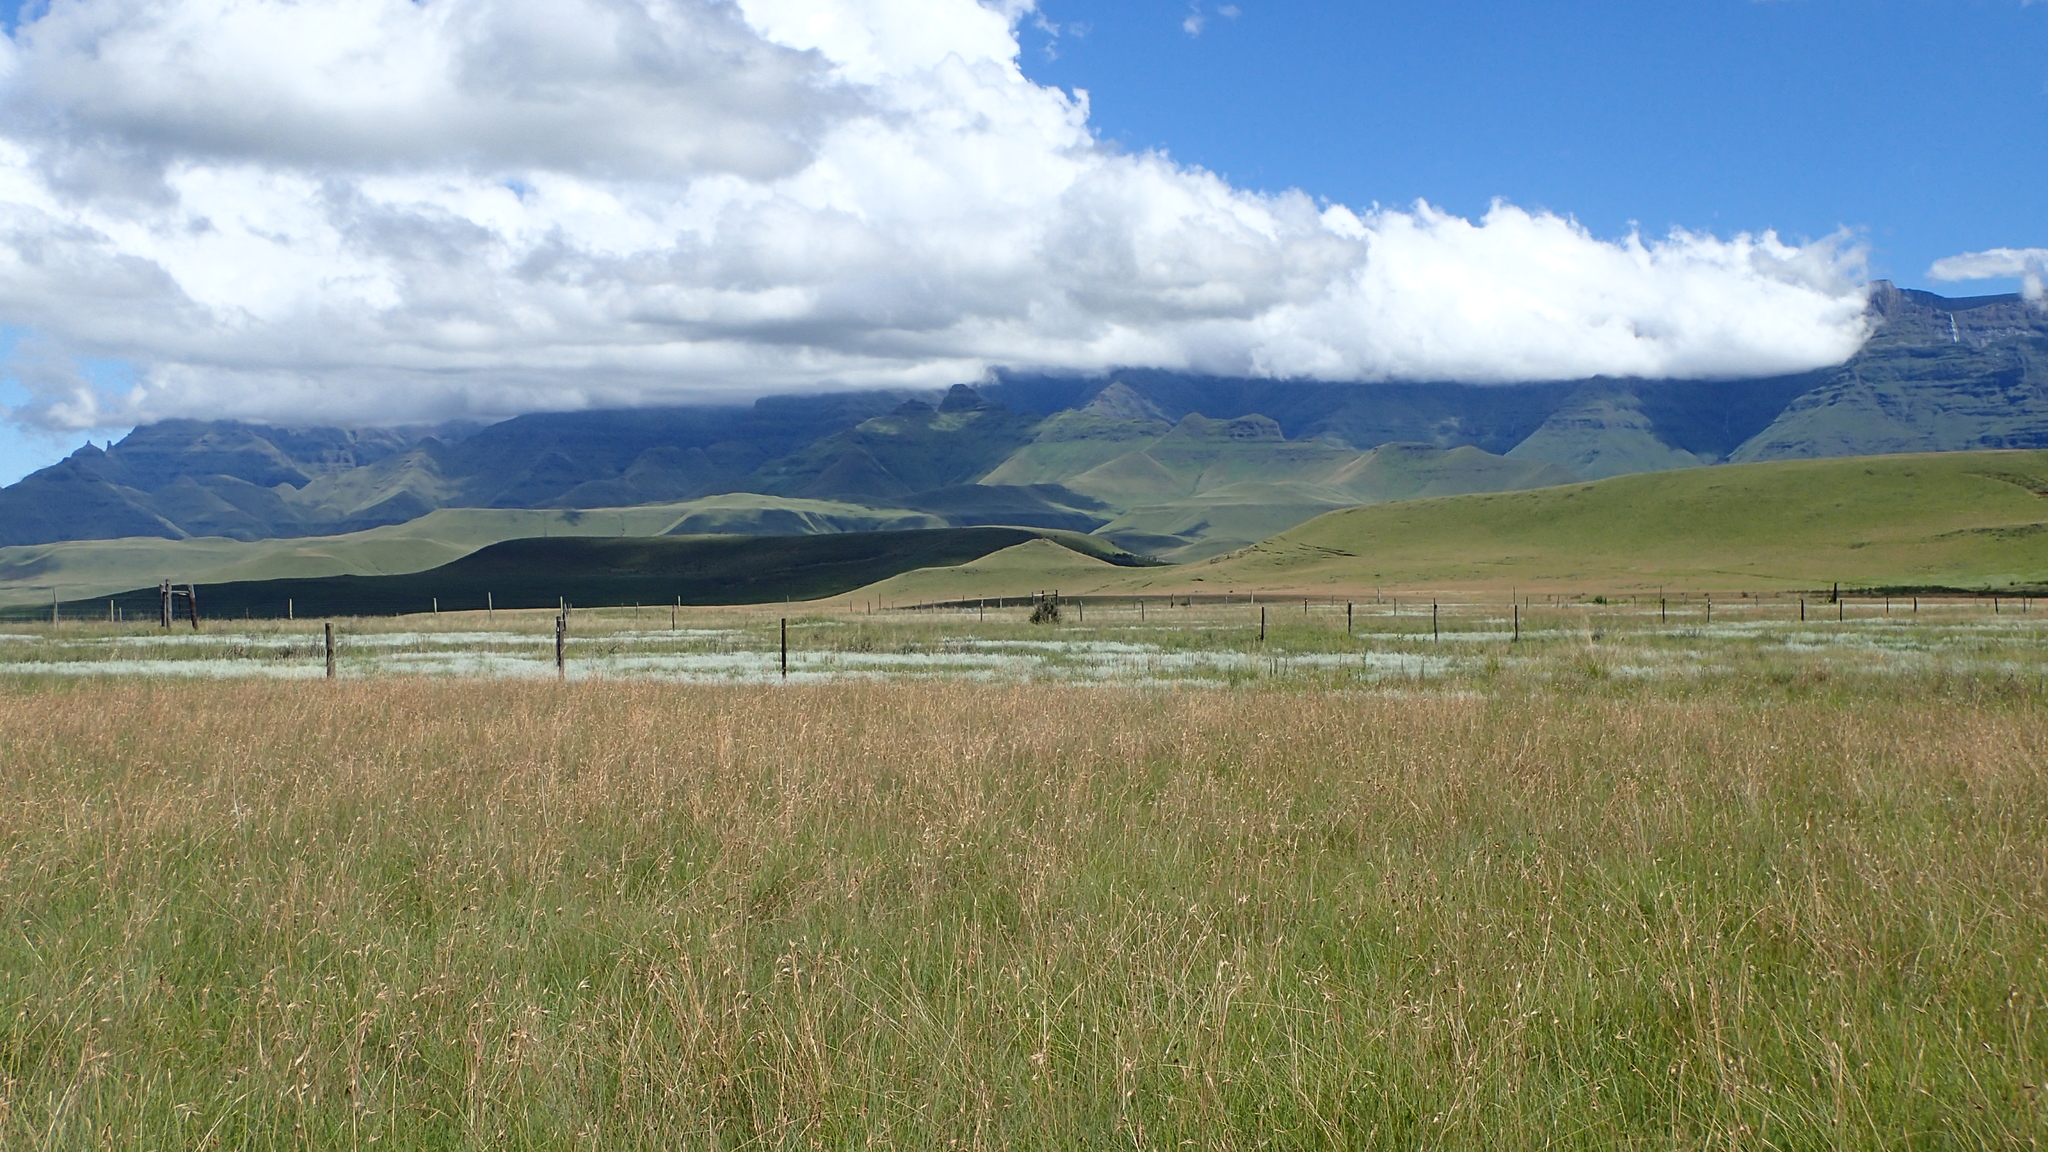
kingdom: Plantae
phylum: Tracheophyta
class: Liliopsida
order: Poales
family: Poaceae
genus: Themeda
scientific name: Themeda triandra
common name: Kangaroo grass
